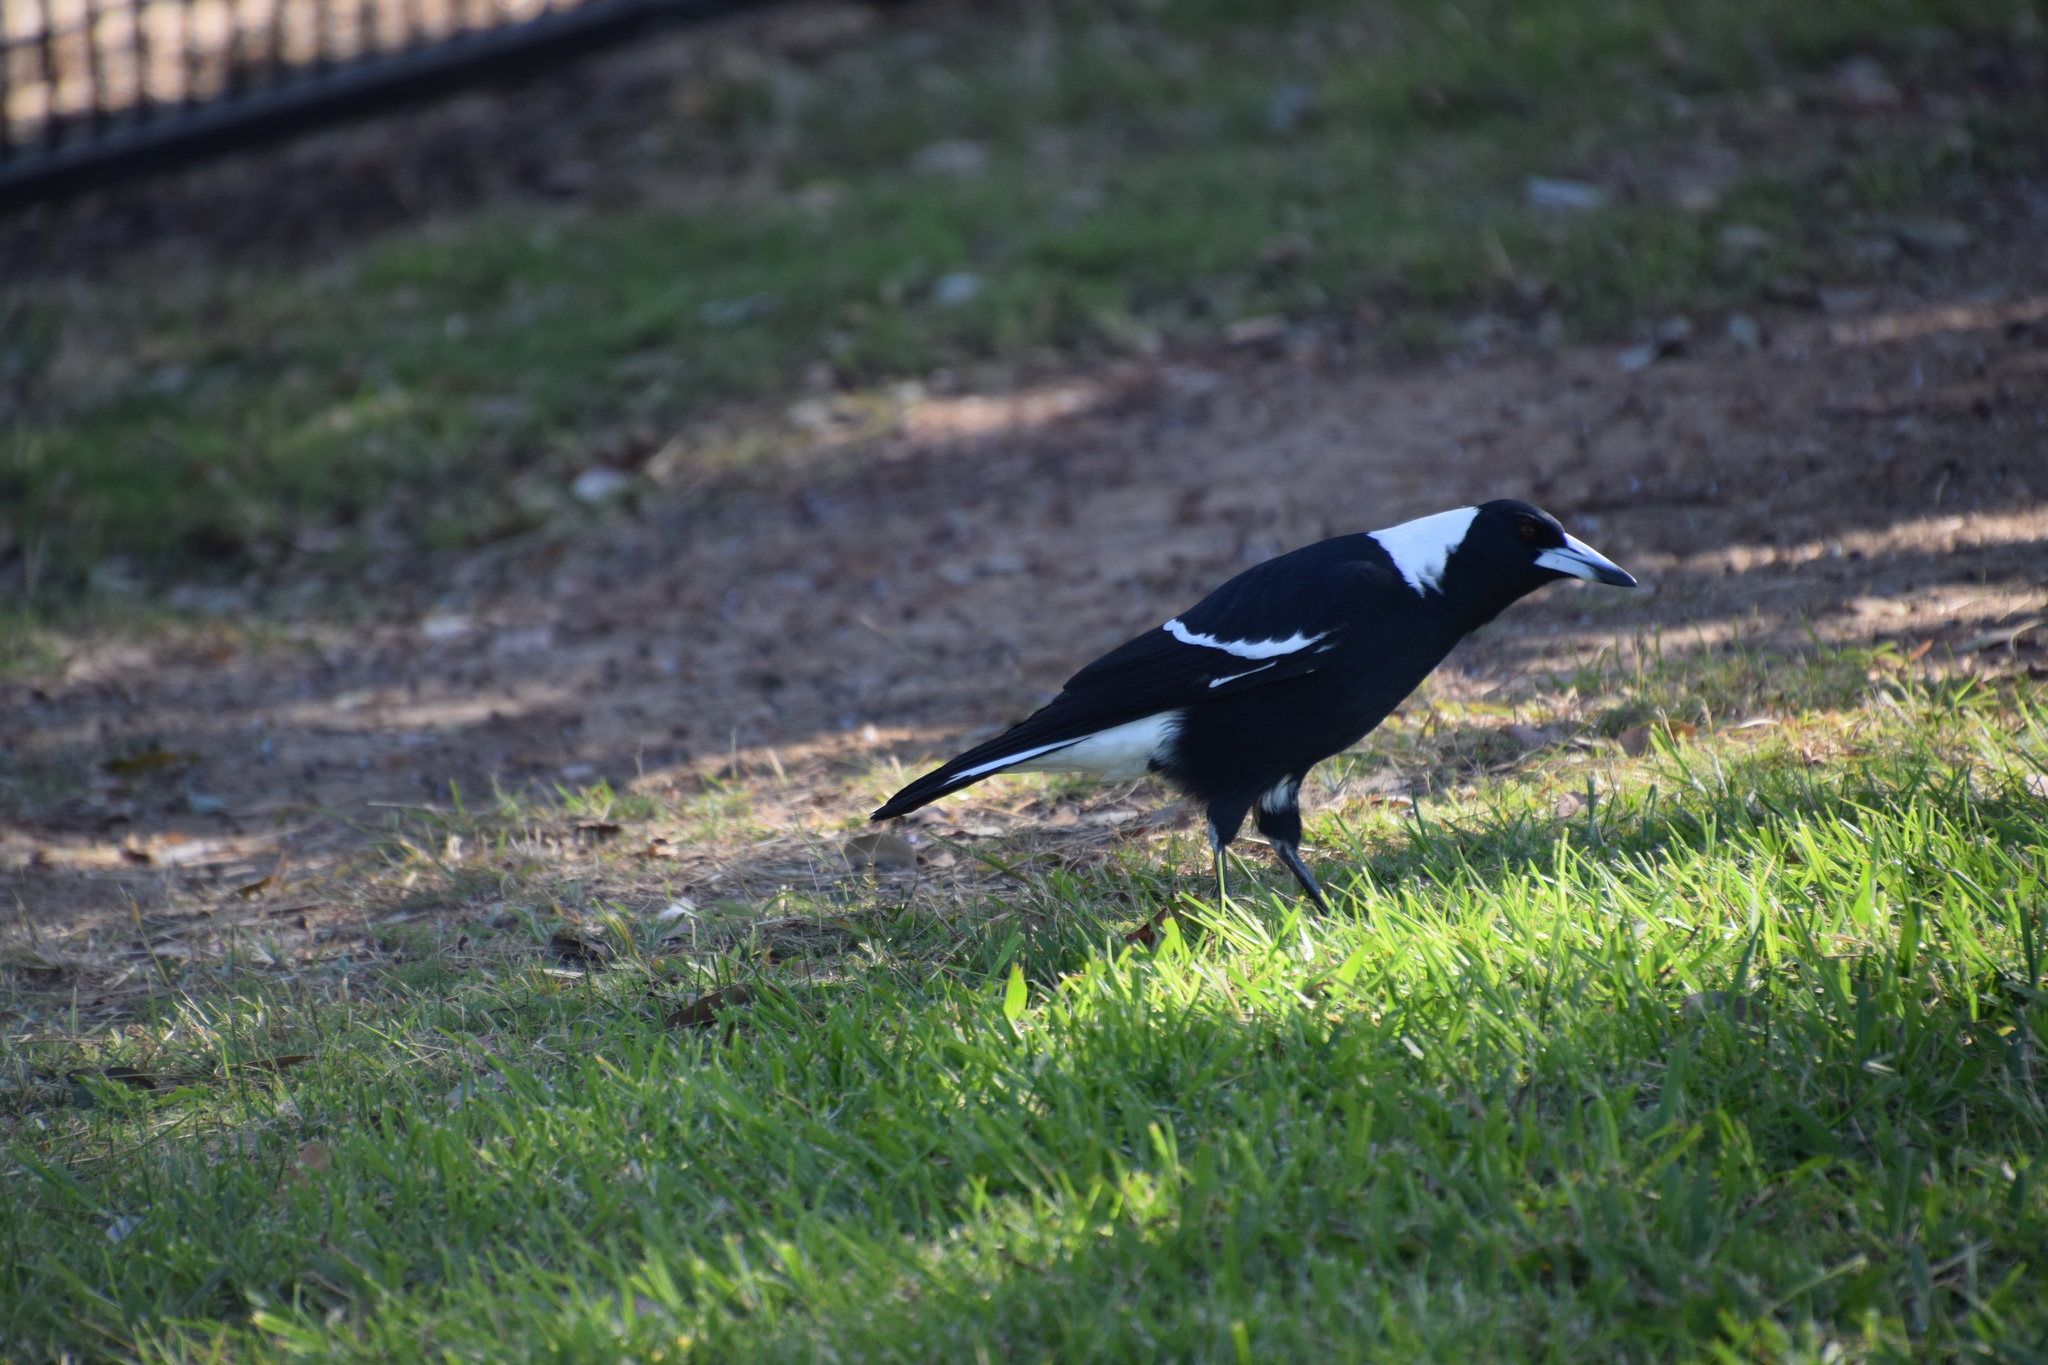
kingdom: Animalia
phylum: Chordata
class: Aves
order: Passeriformes
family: Cracticidae
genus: Gymnorhina
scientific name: Gymnorhina tibicen
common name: Australian magpie
